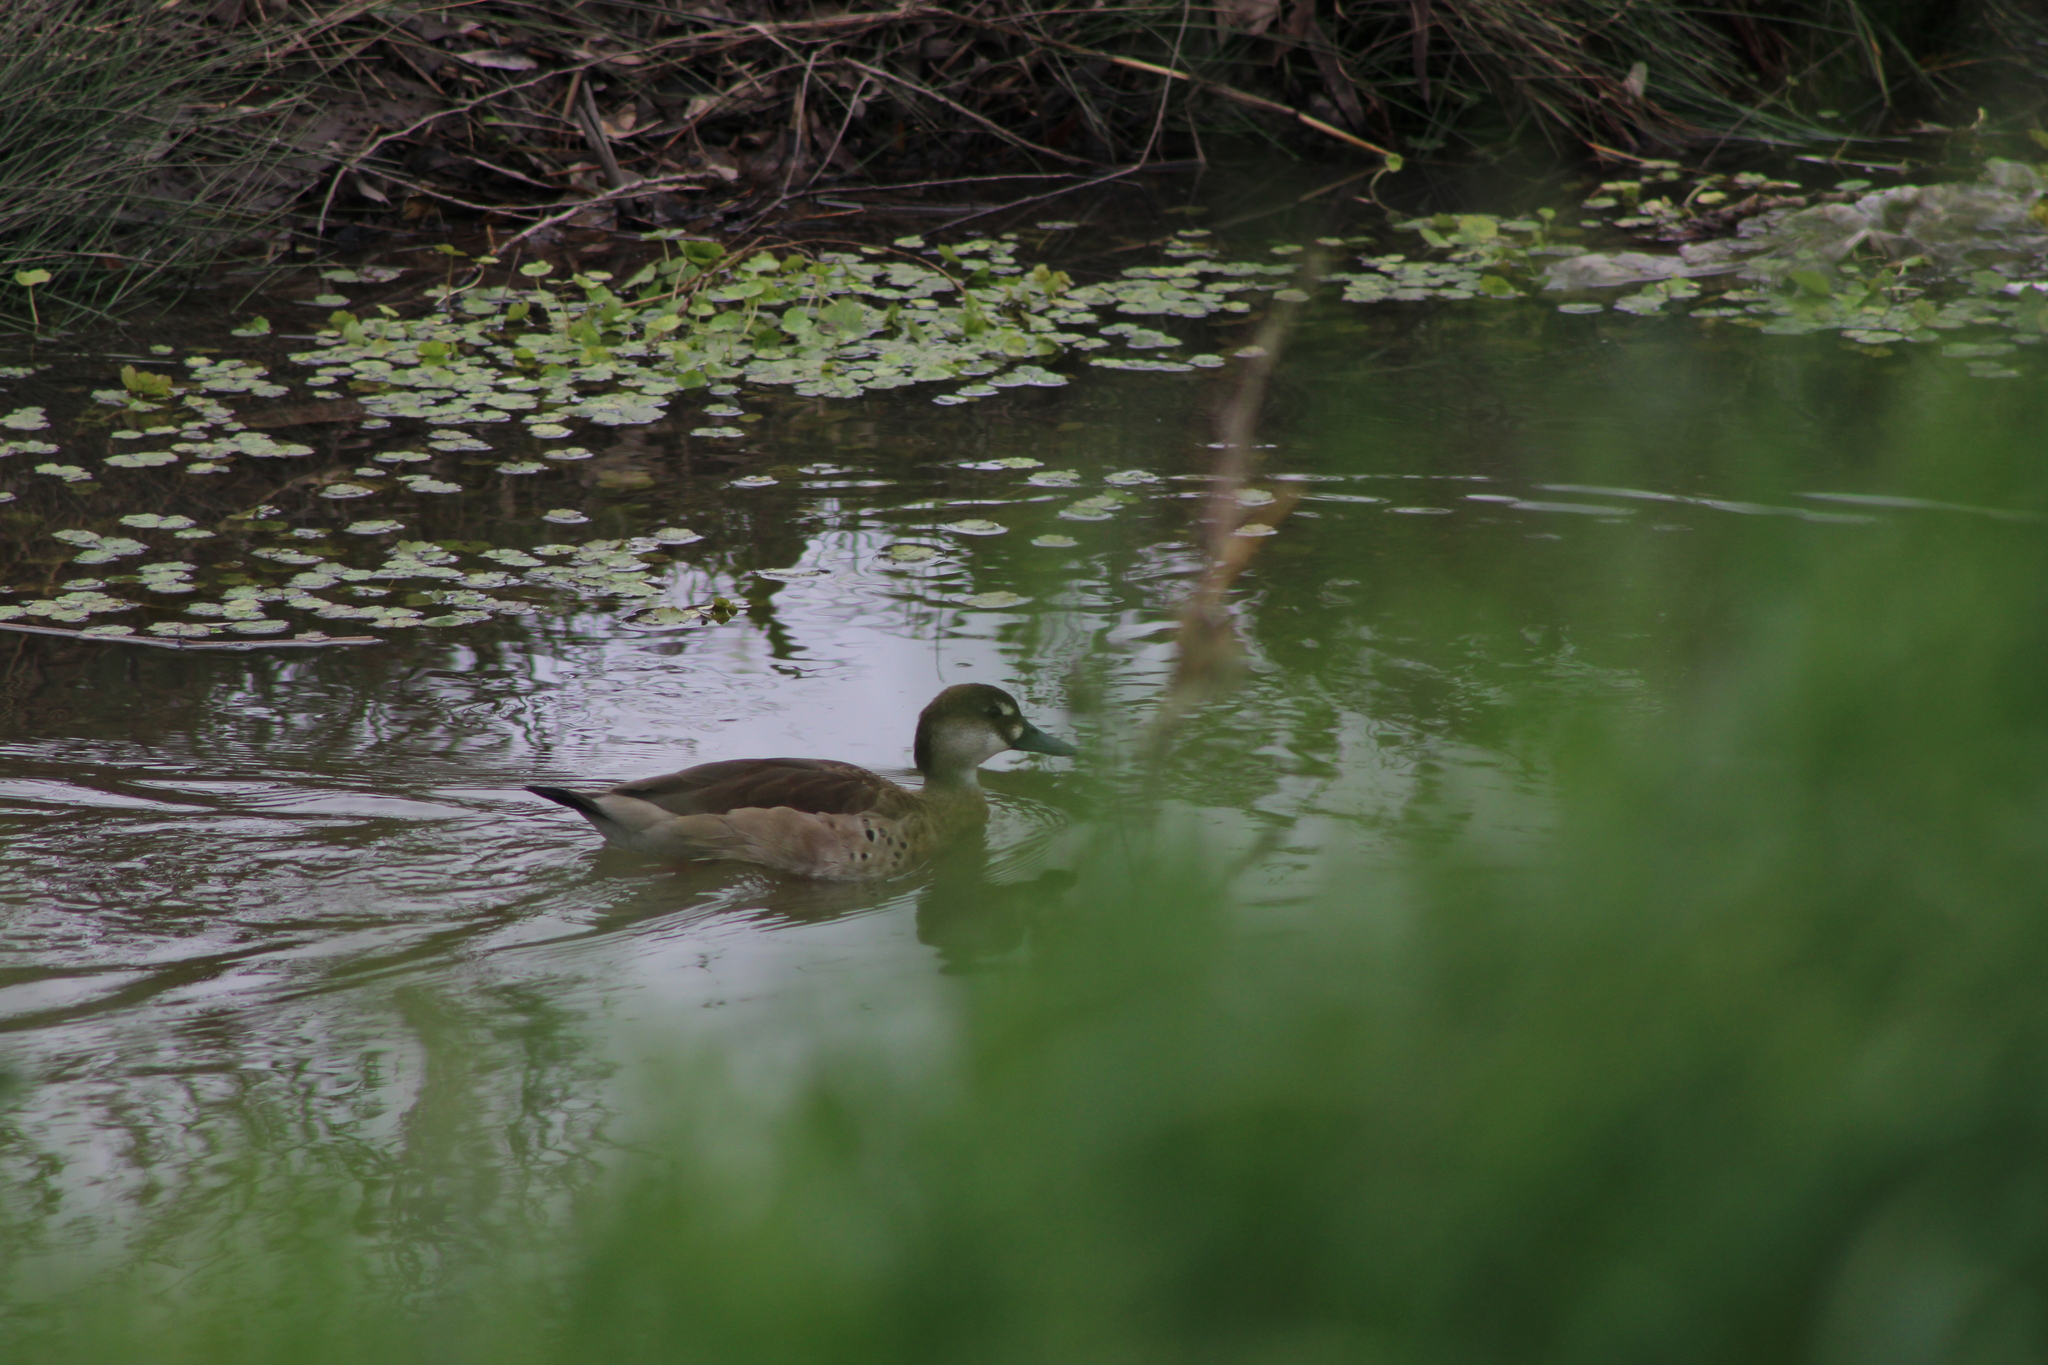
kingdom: Animalia
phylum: Chordata
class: Aves
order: Anseriformes
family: Anatidae
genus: Amazonetta
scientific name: Amazonetta brasiliensis
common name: Brazilian teal
